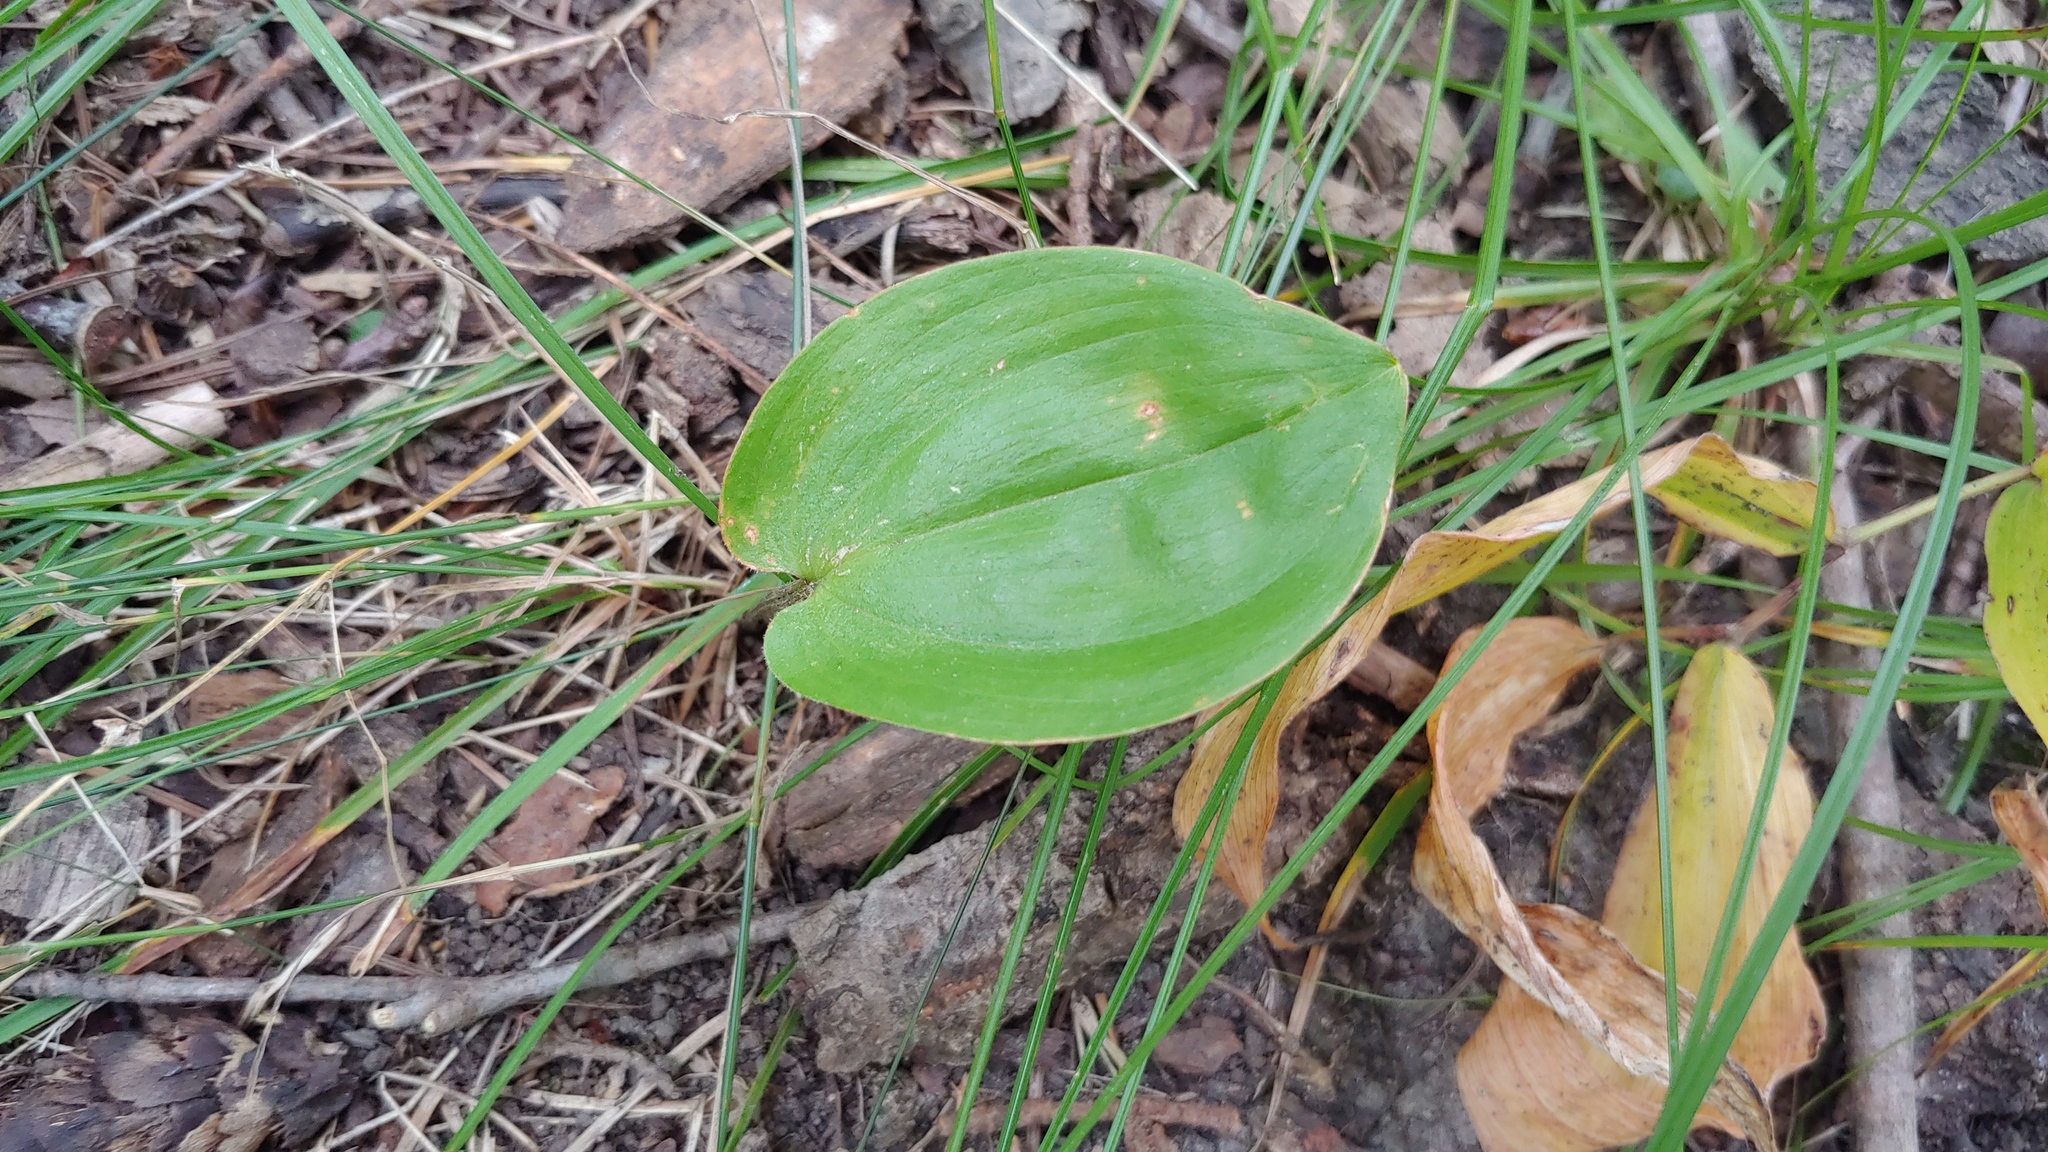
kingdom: Plantae
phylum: Tracheophyta
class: Liliopsida
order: Asparagales
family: Asparagaceae
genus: Maianthemum
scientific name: Maianthemum canadense
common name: False lily-of-the-valley
